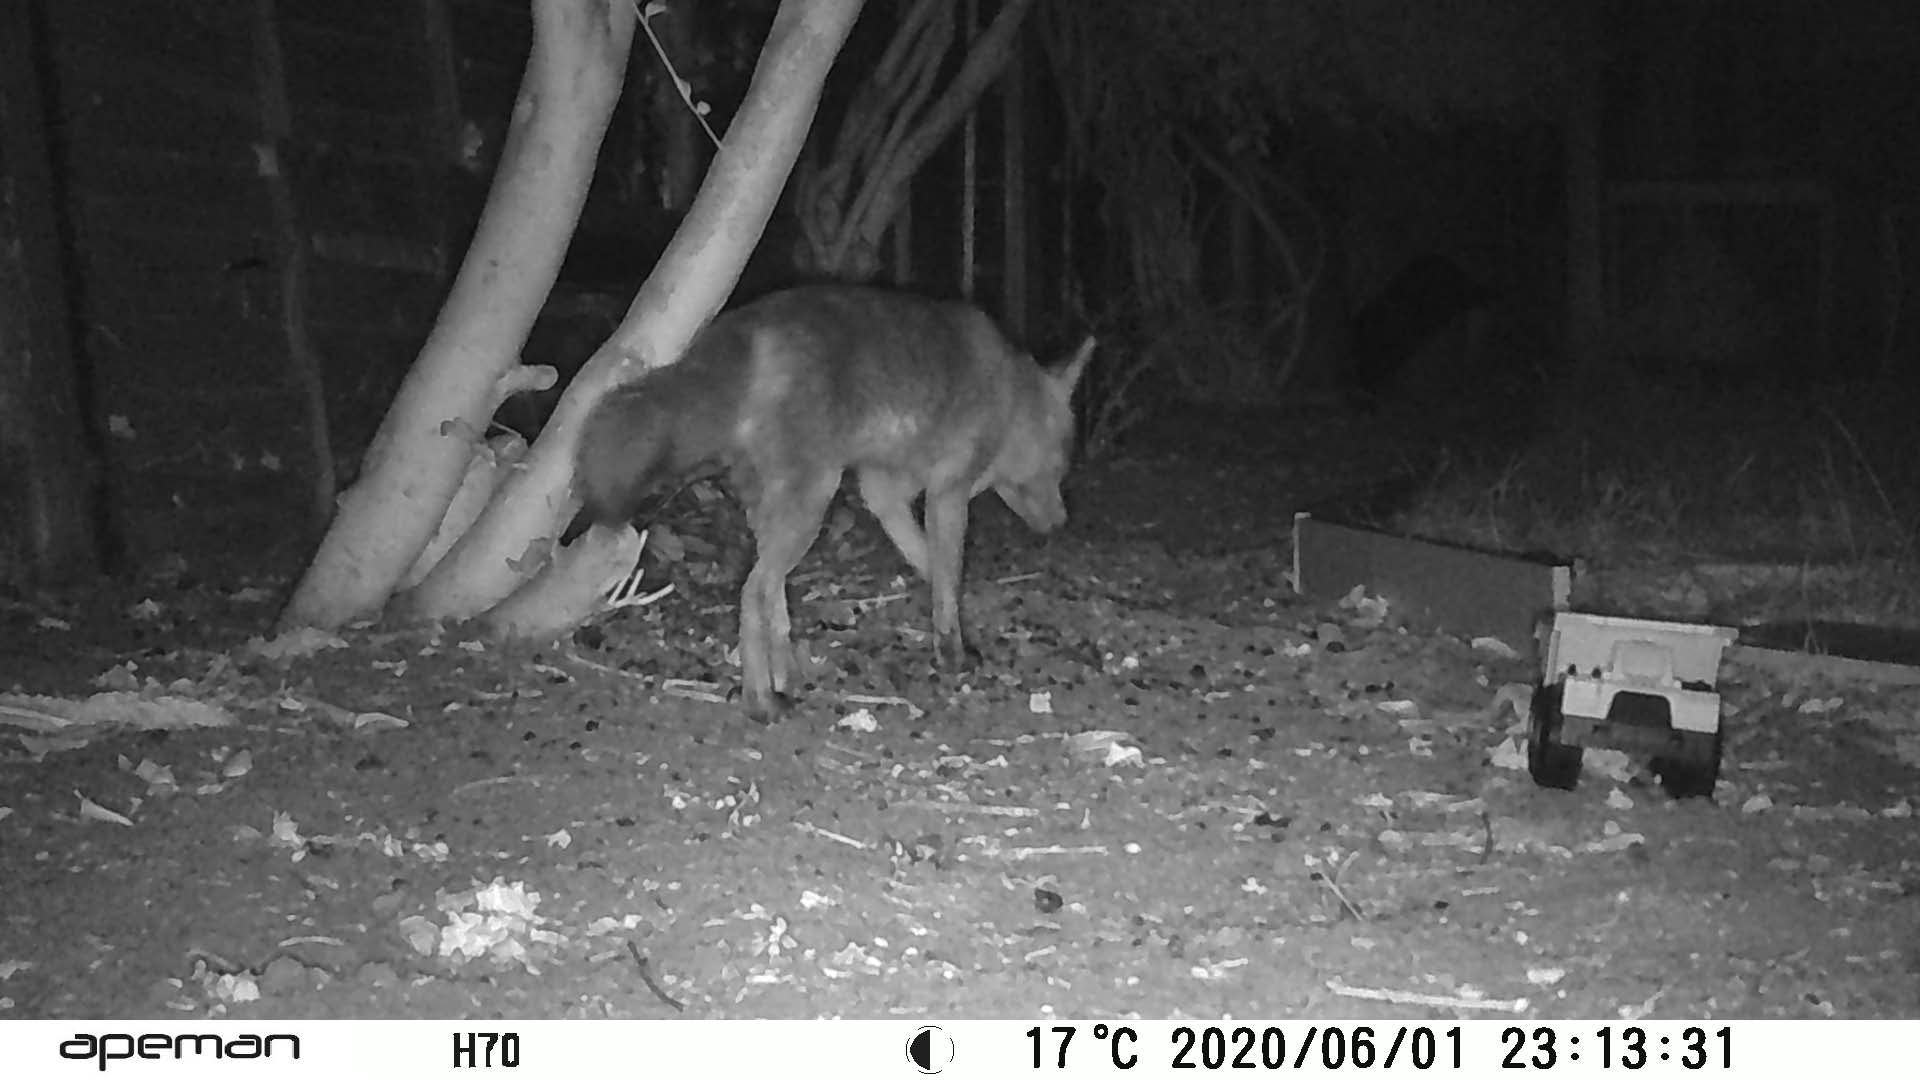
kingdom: Animalia
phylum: Chordata
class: Mammalia
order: Carnivora
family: Canidae
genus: Vulpes
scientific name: Vulpes vulpes
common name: Red fox
